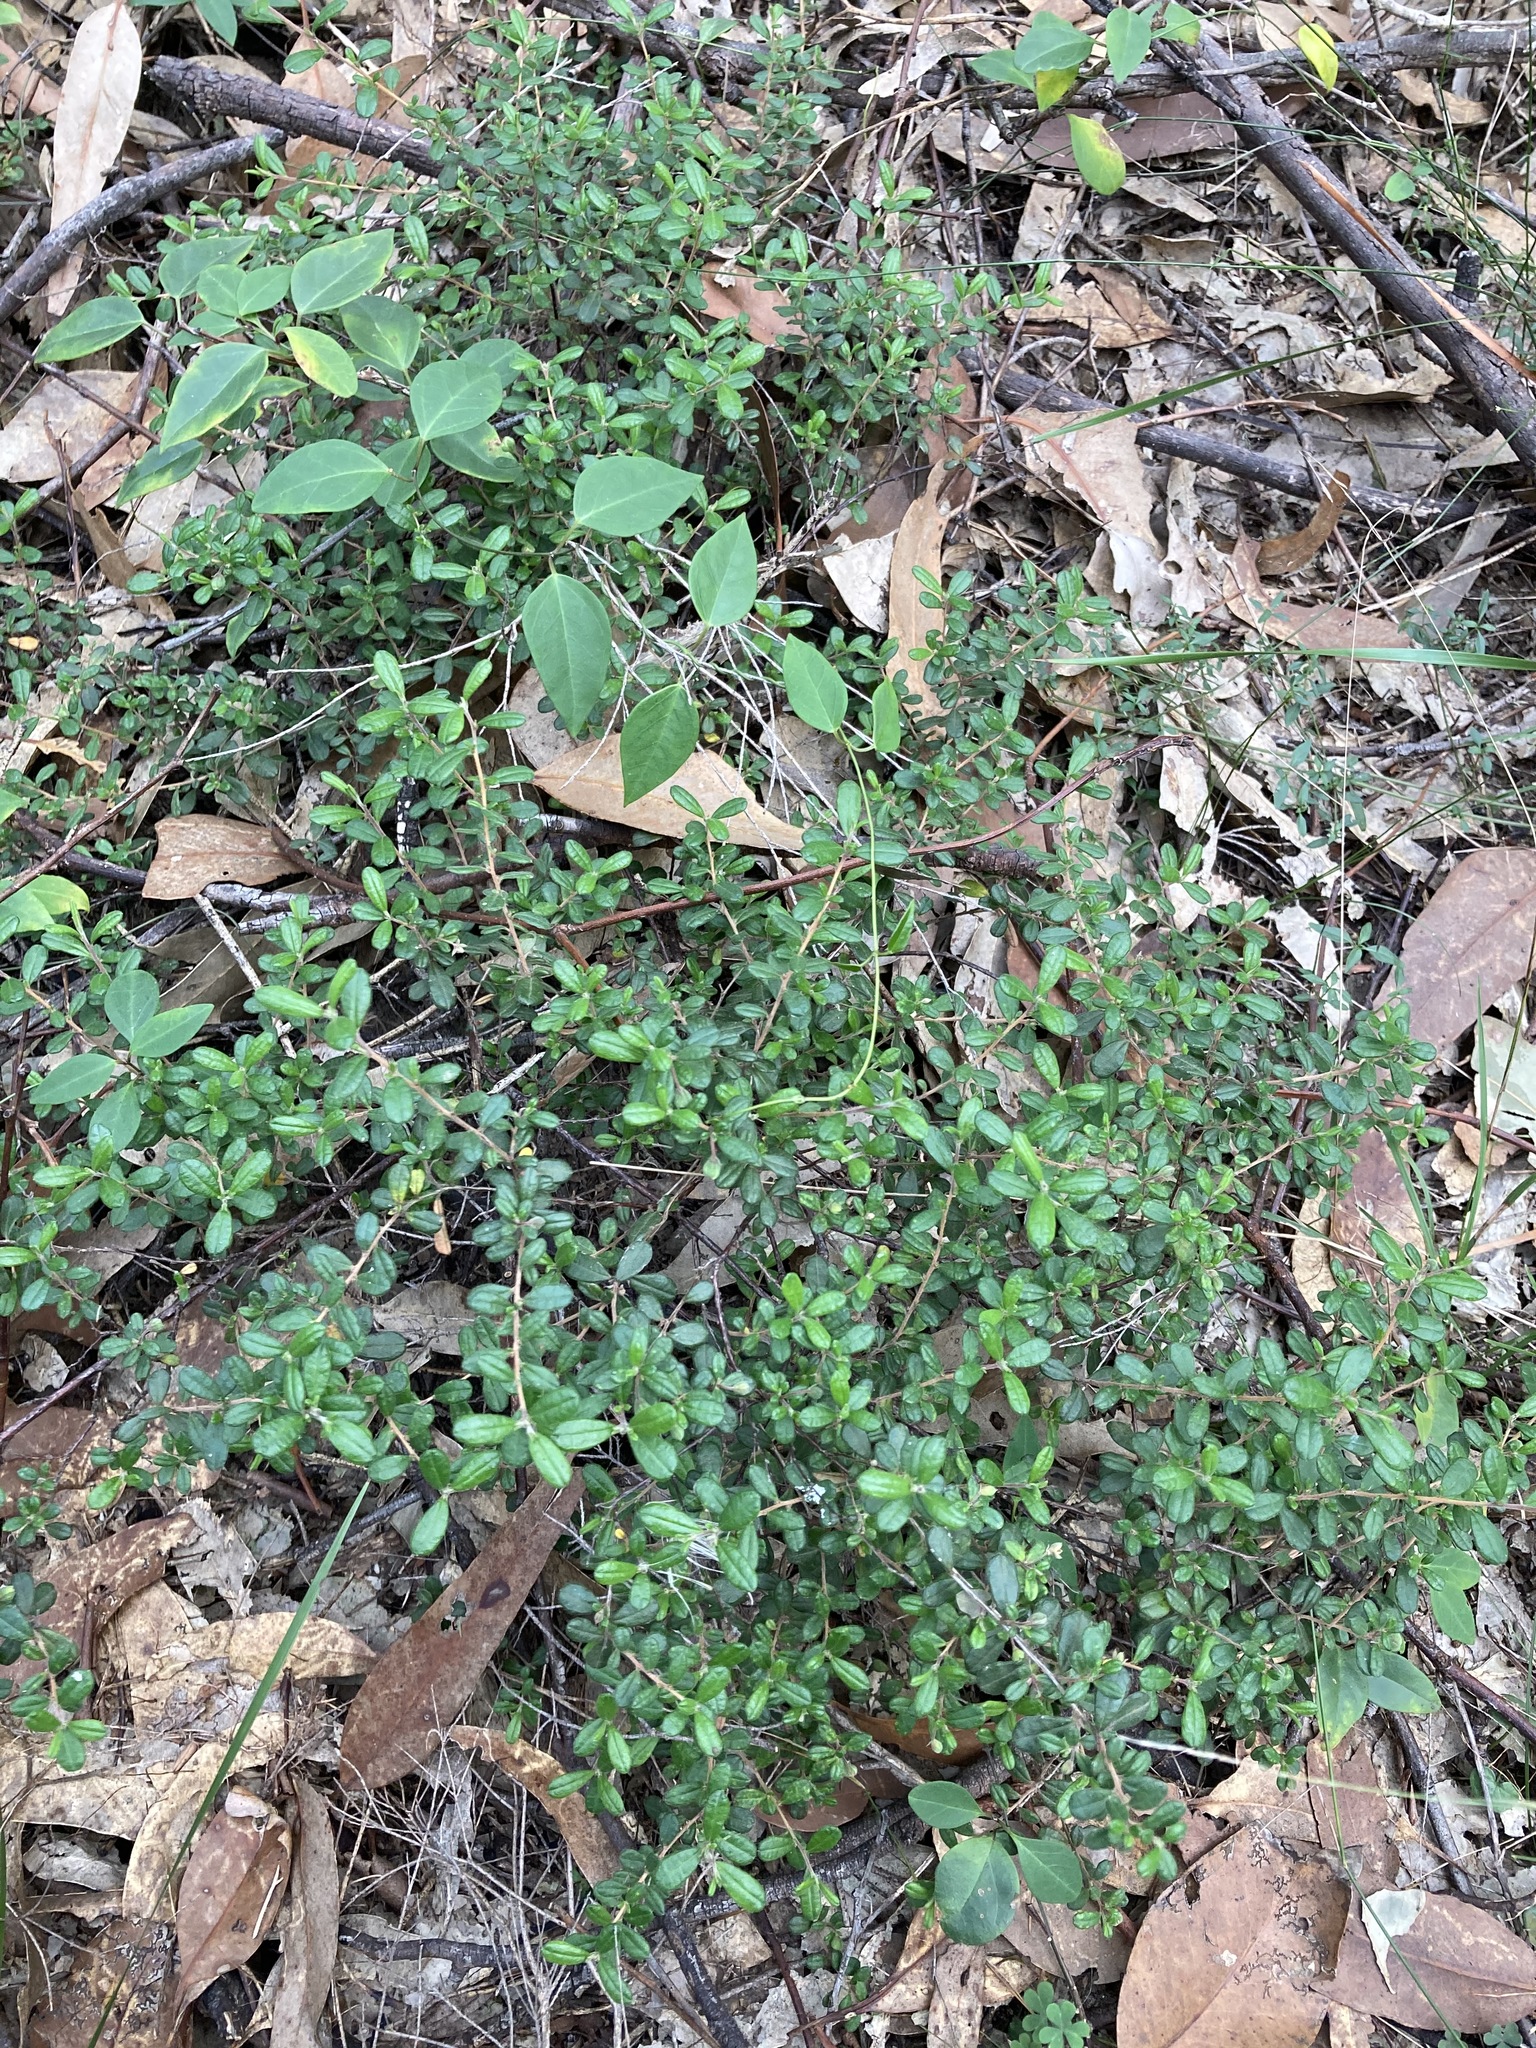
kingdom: Plantae
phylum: Tracheophyta
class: Magnoliopsida
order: Dilleniales
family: Dilleniaceae
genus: Hibbertia
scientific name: Hibbertia aspera
